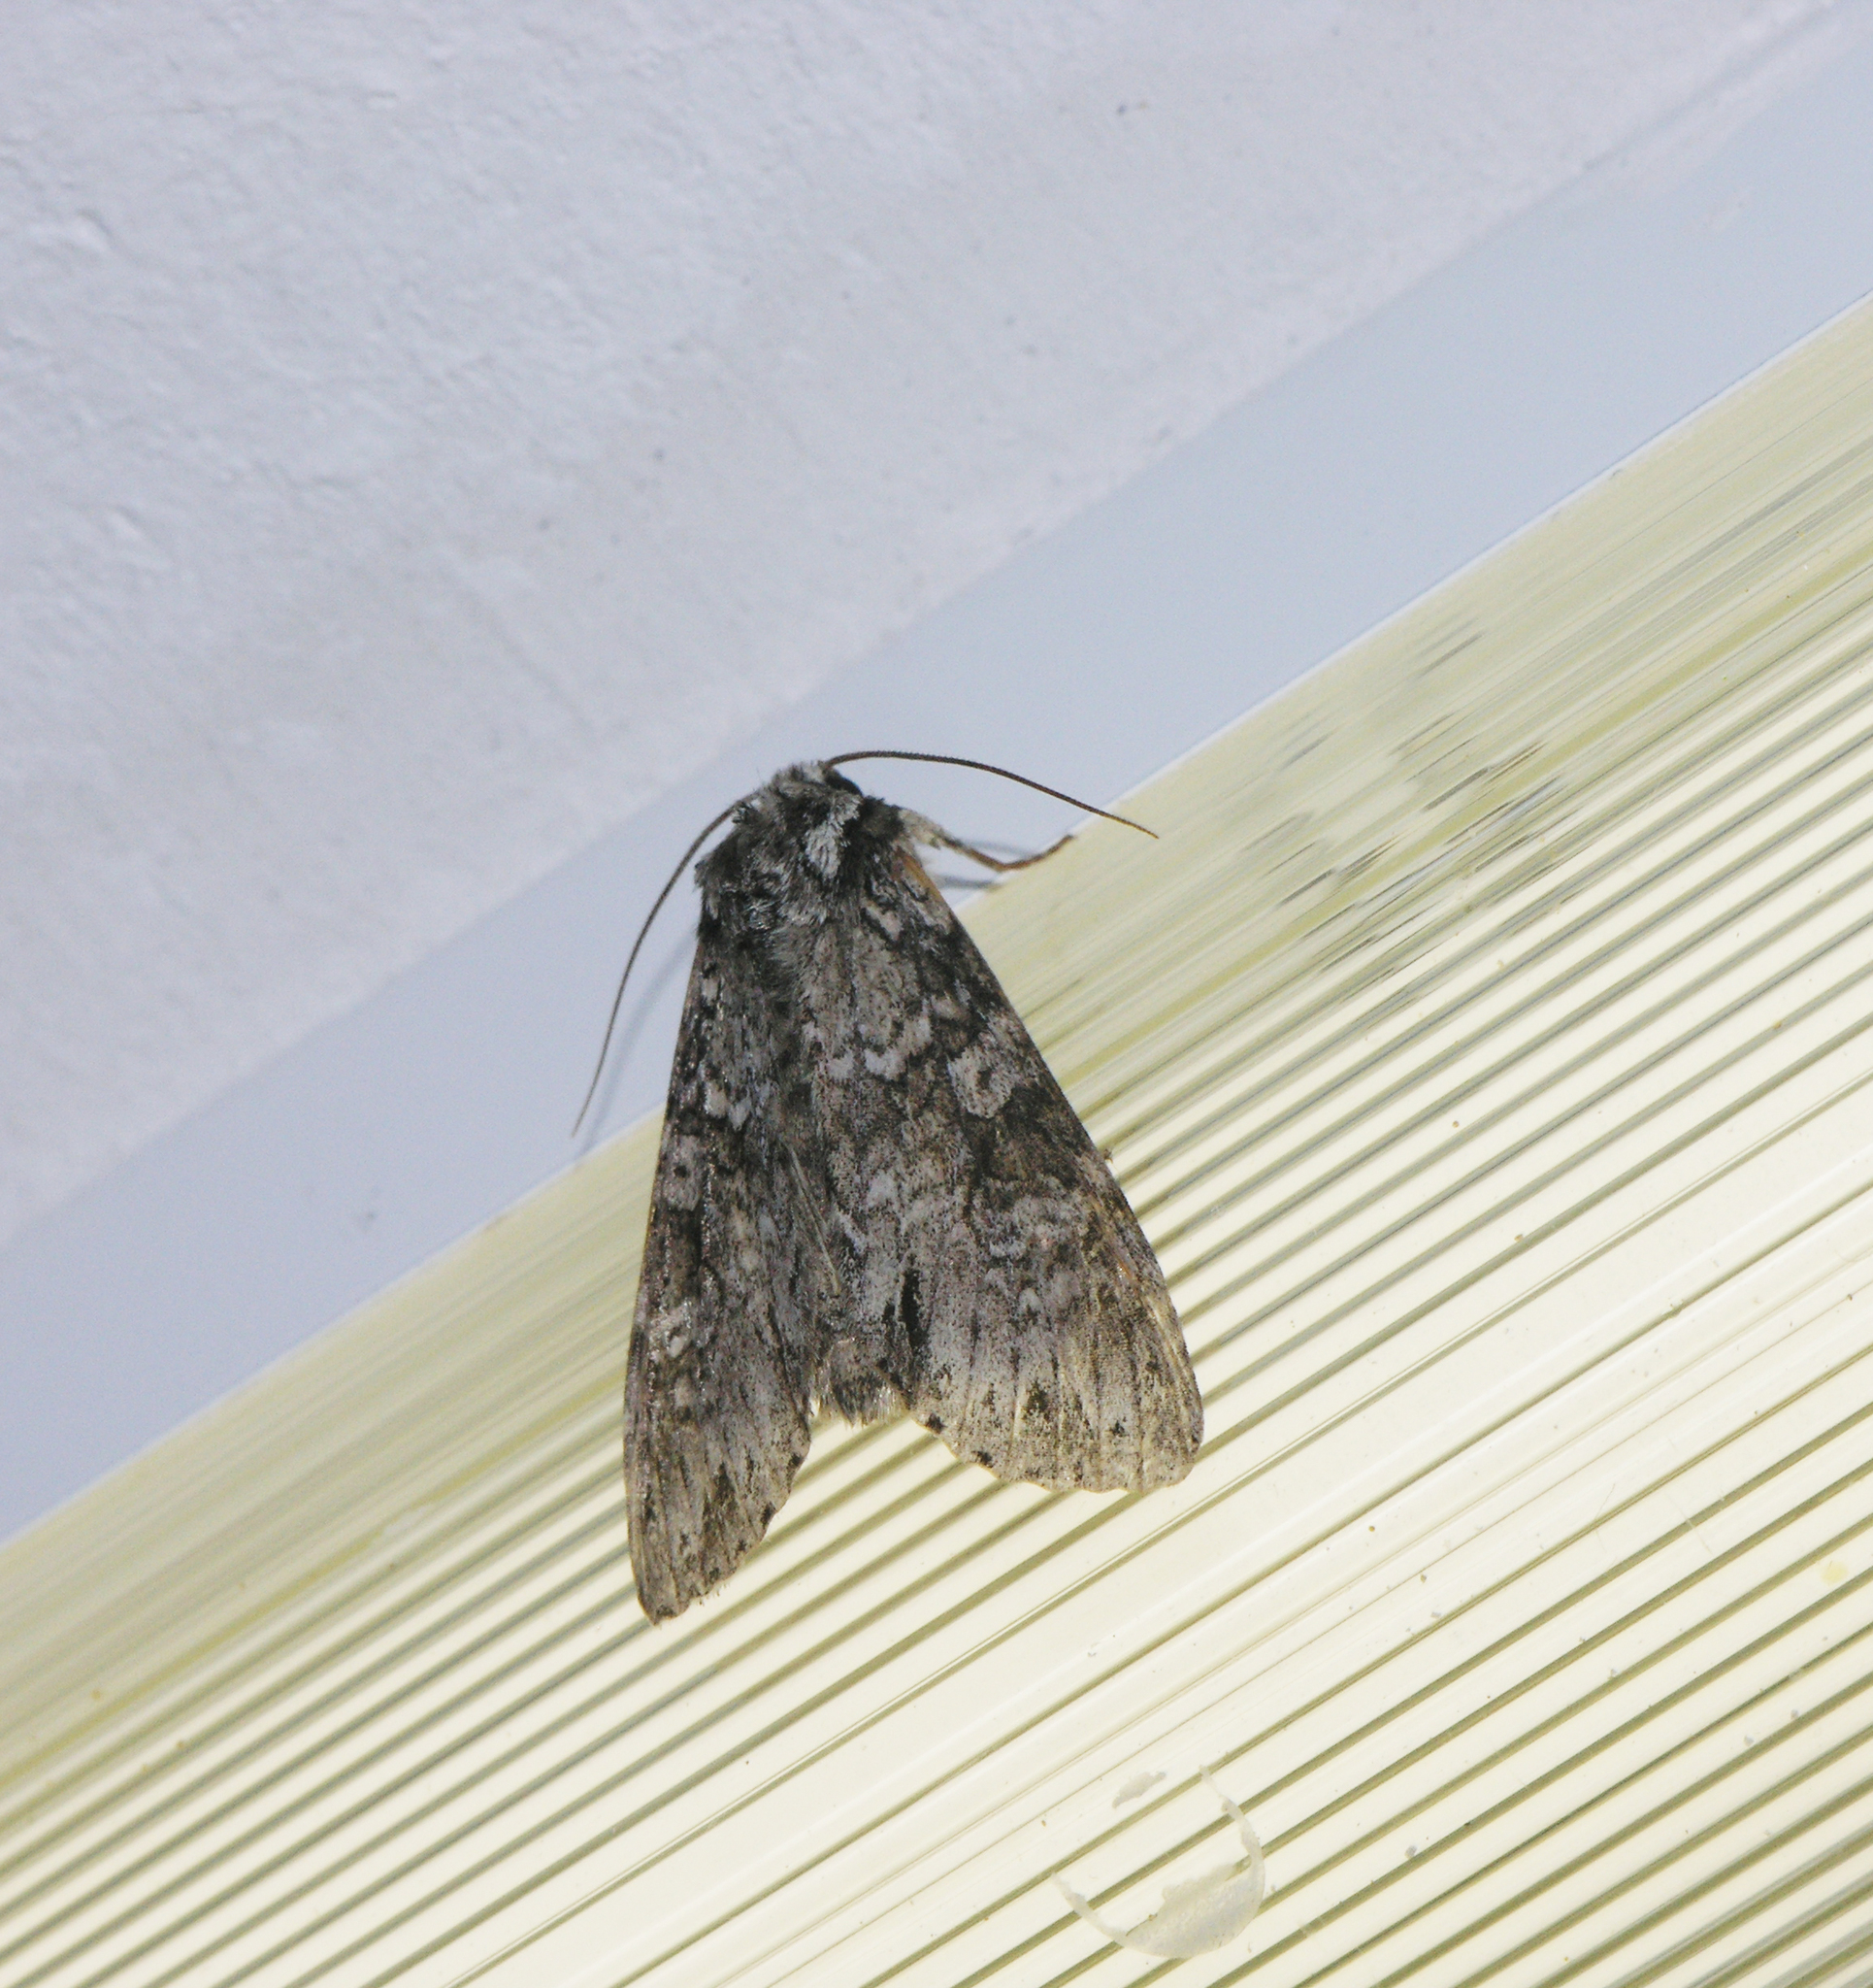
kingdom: Animalia
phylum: Arthropoda
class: Insecta
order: Lepidoptera
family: Noctuidae
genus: Polia
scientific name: Polia nebulosa
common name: Grey arches
